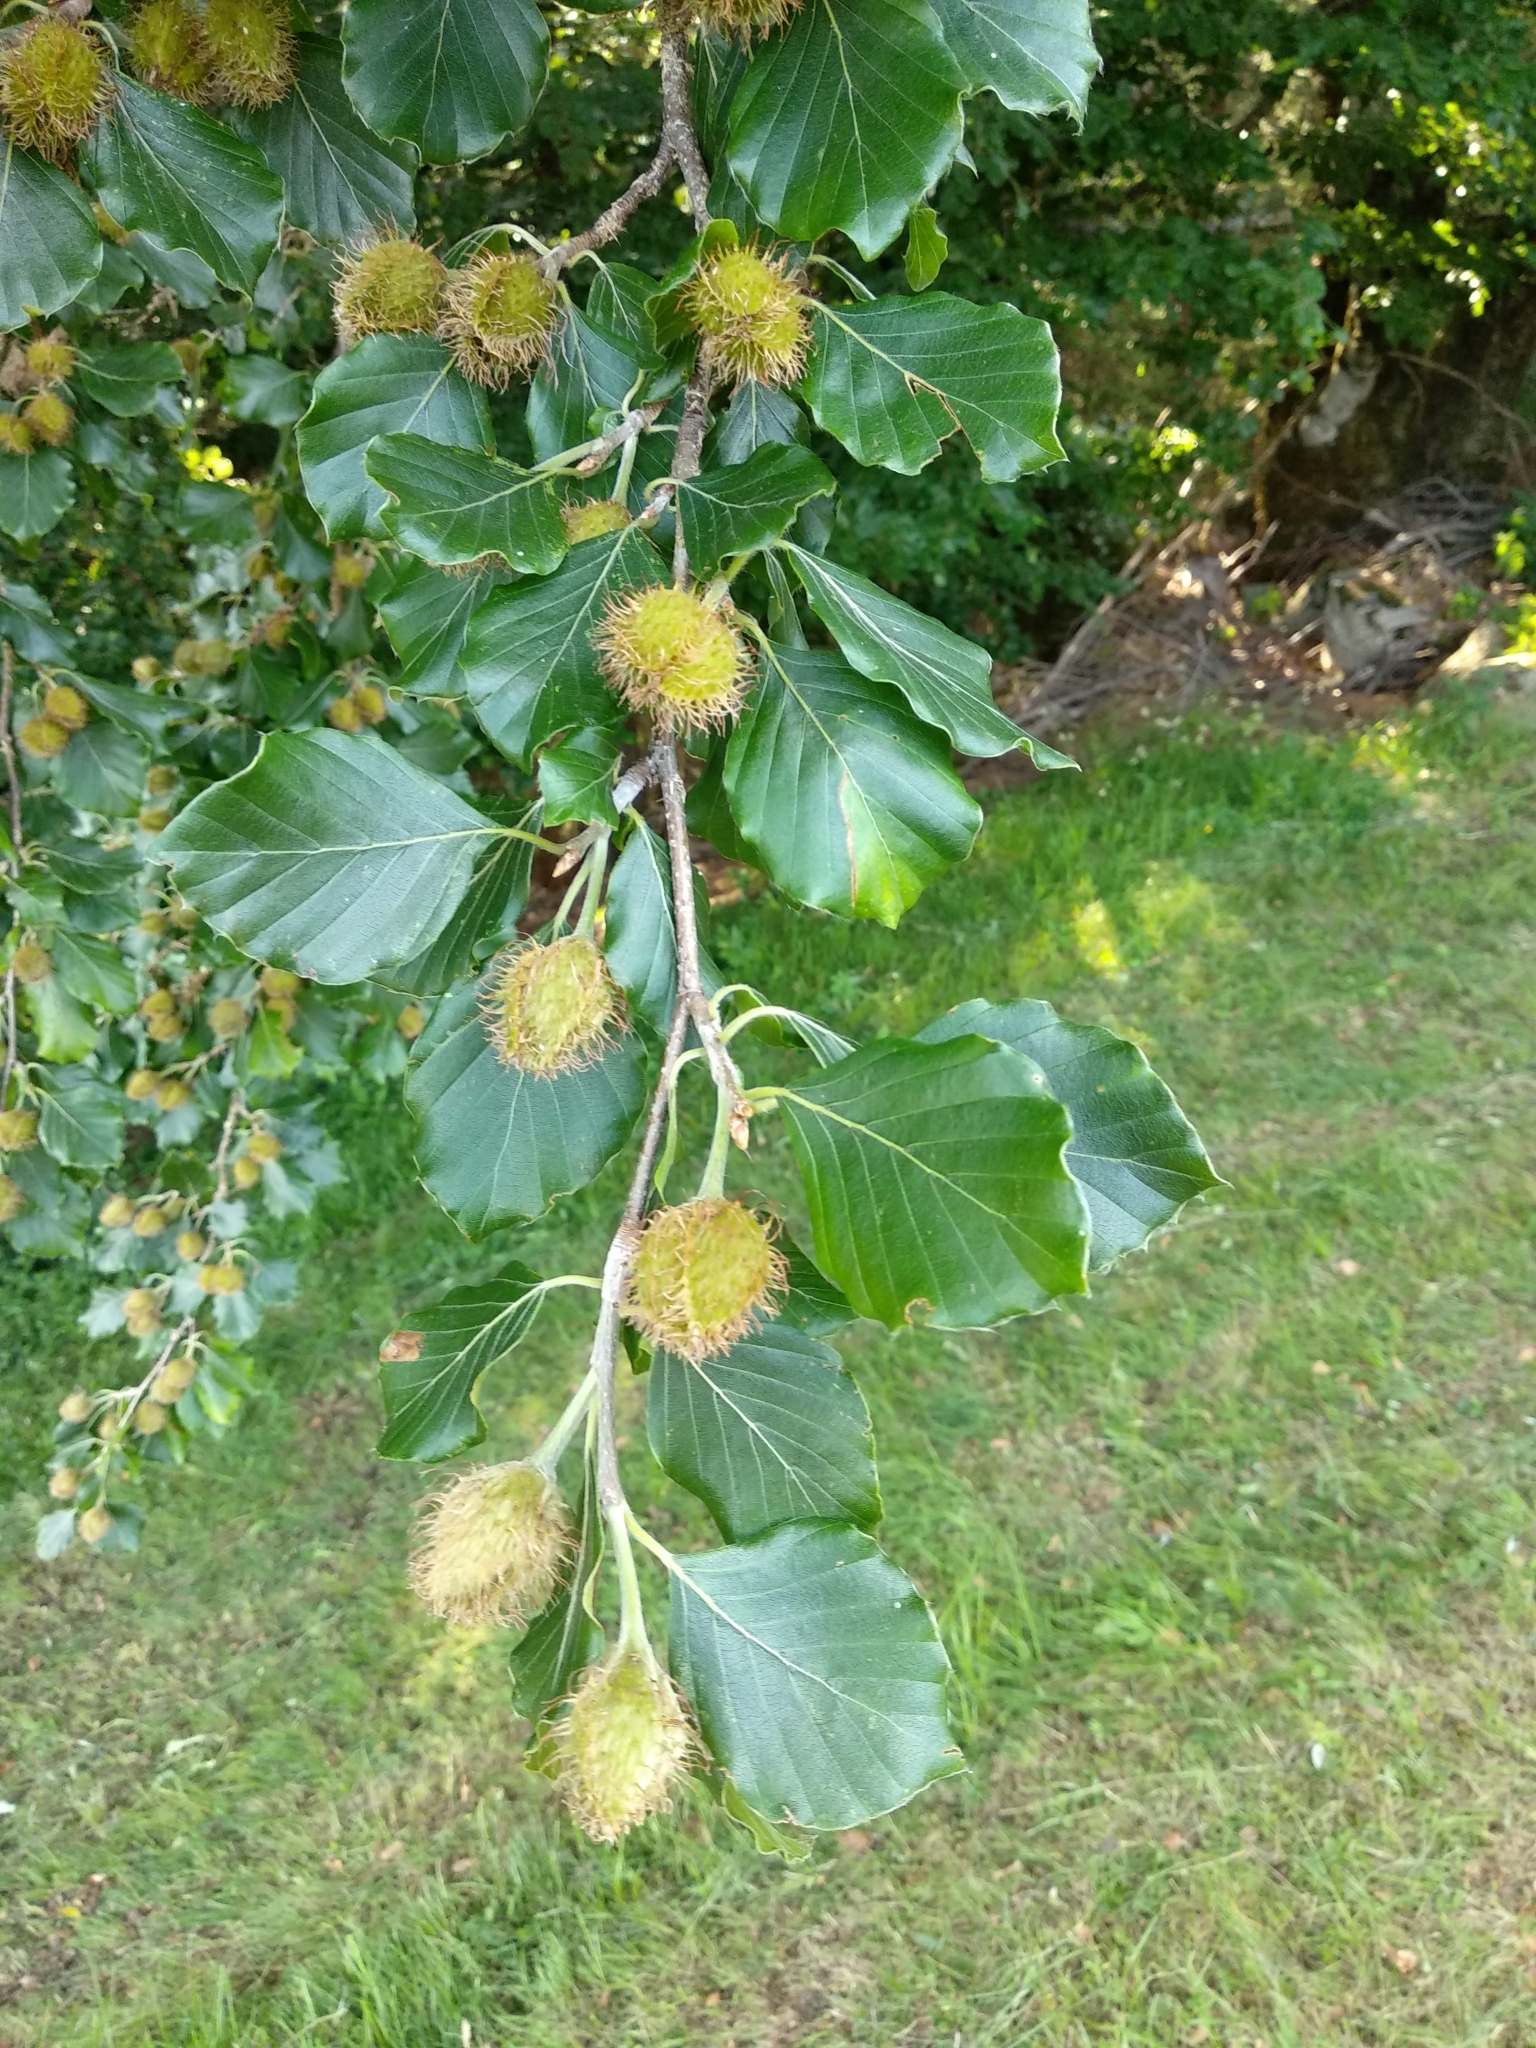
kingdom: Plantae
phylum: Tracheophyta
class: Magnoliopsida
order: Fagales
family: Fagaceae
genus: Fagus
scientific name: Fagus sylvatica
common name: Beech
